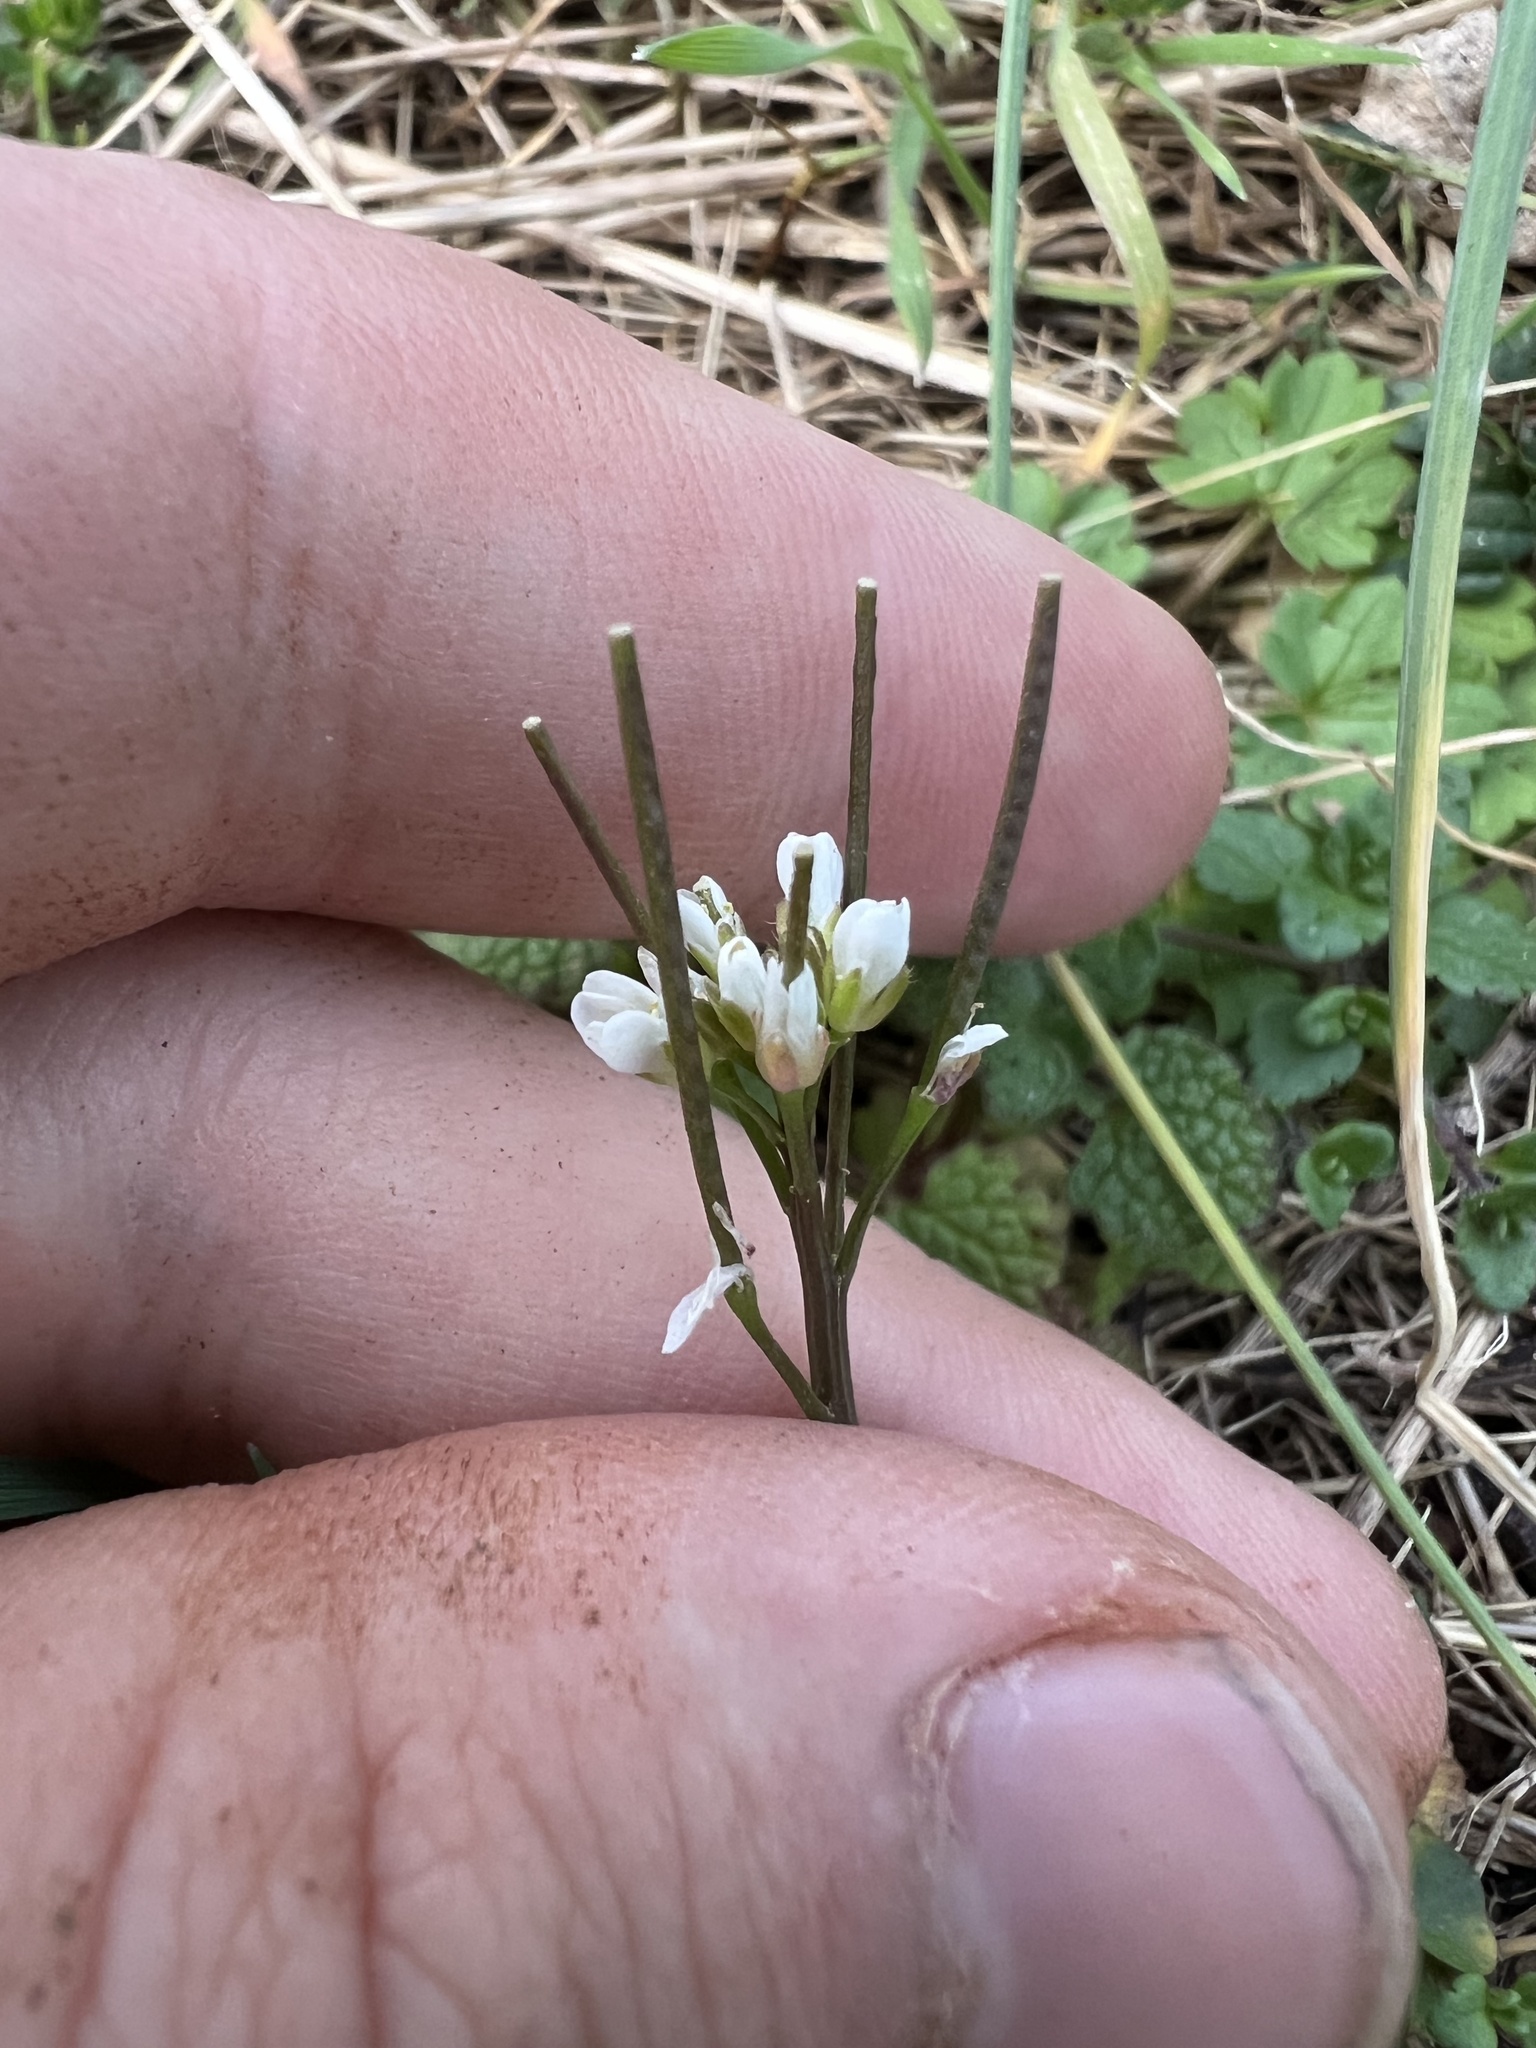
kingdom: Plantae
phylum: Tracheophyta
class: Magnoliopsida
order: Brassicales
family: Brassicaceae
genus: Cardamine
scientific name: Cardamine hirsuta
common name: Hairy bittercress
